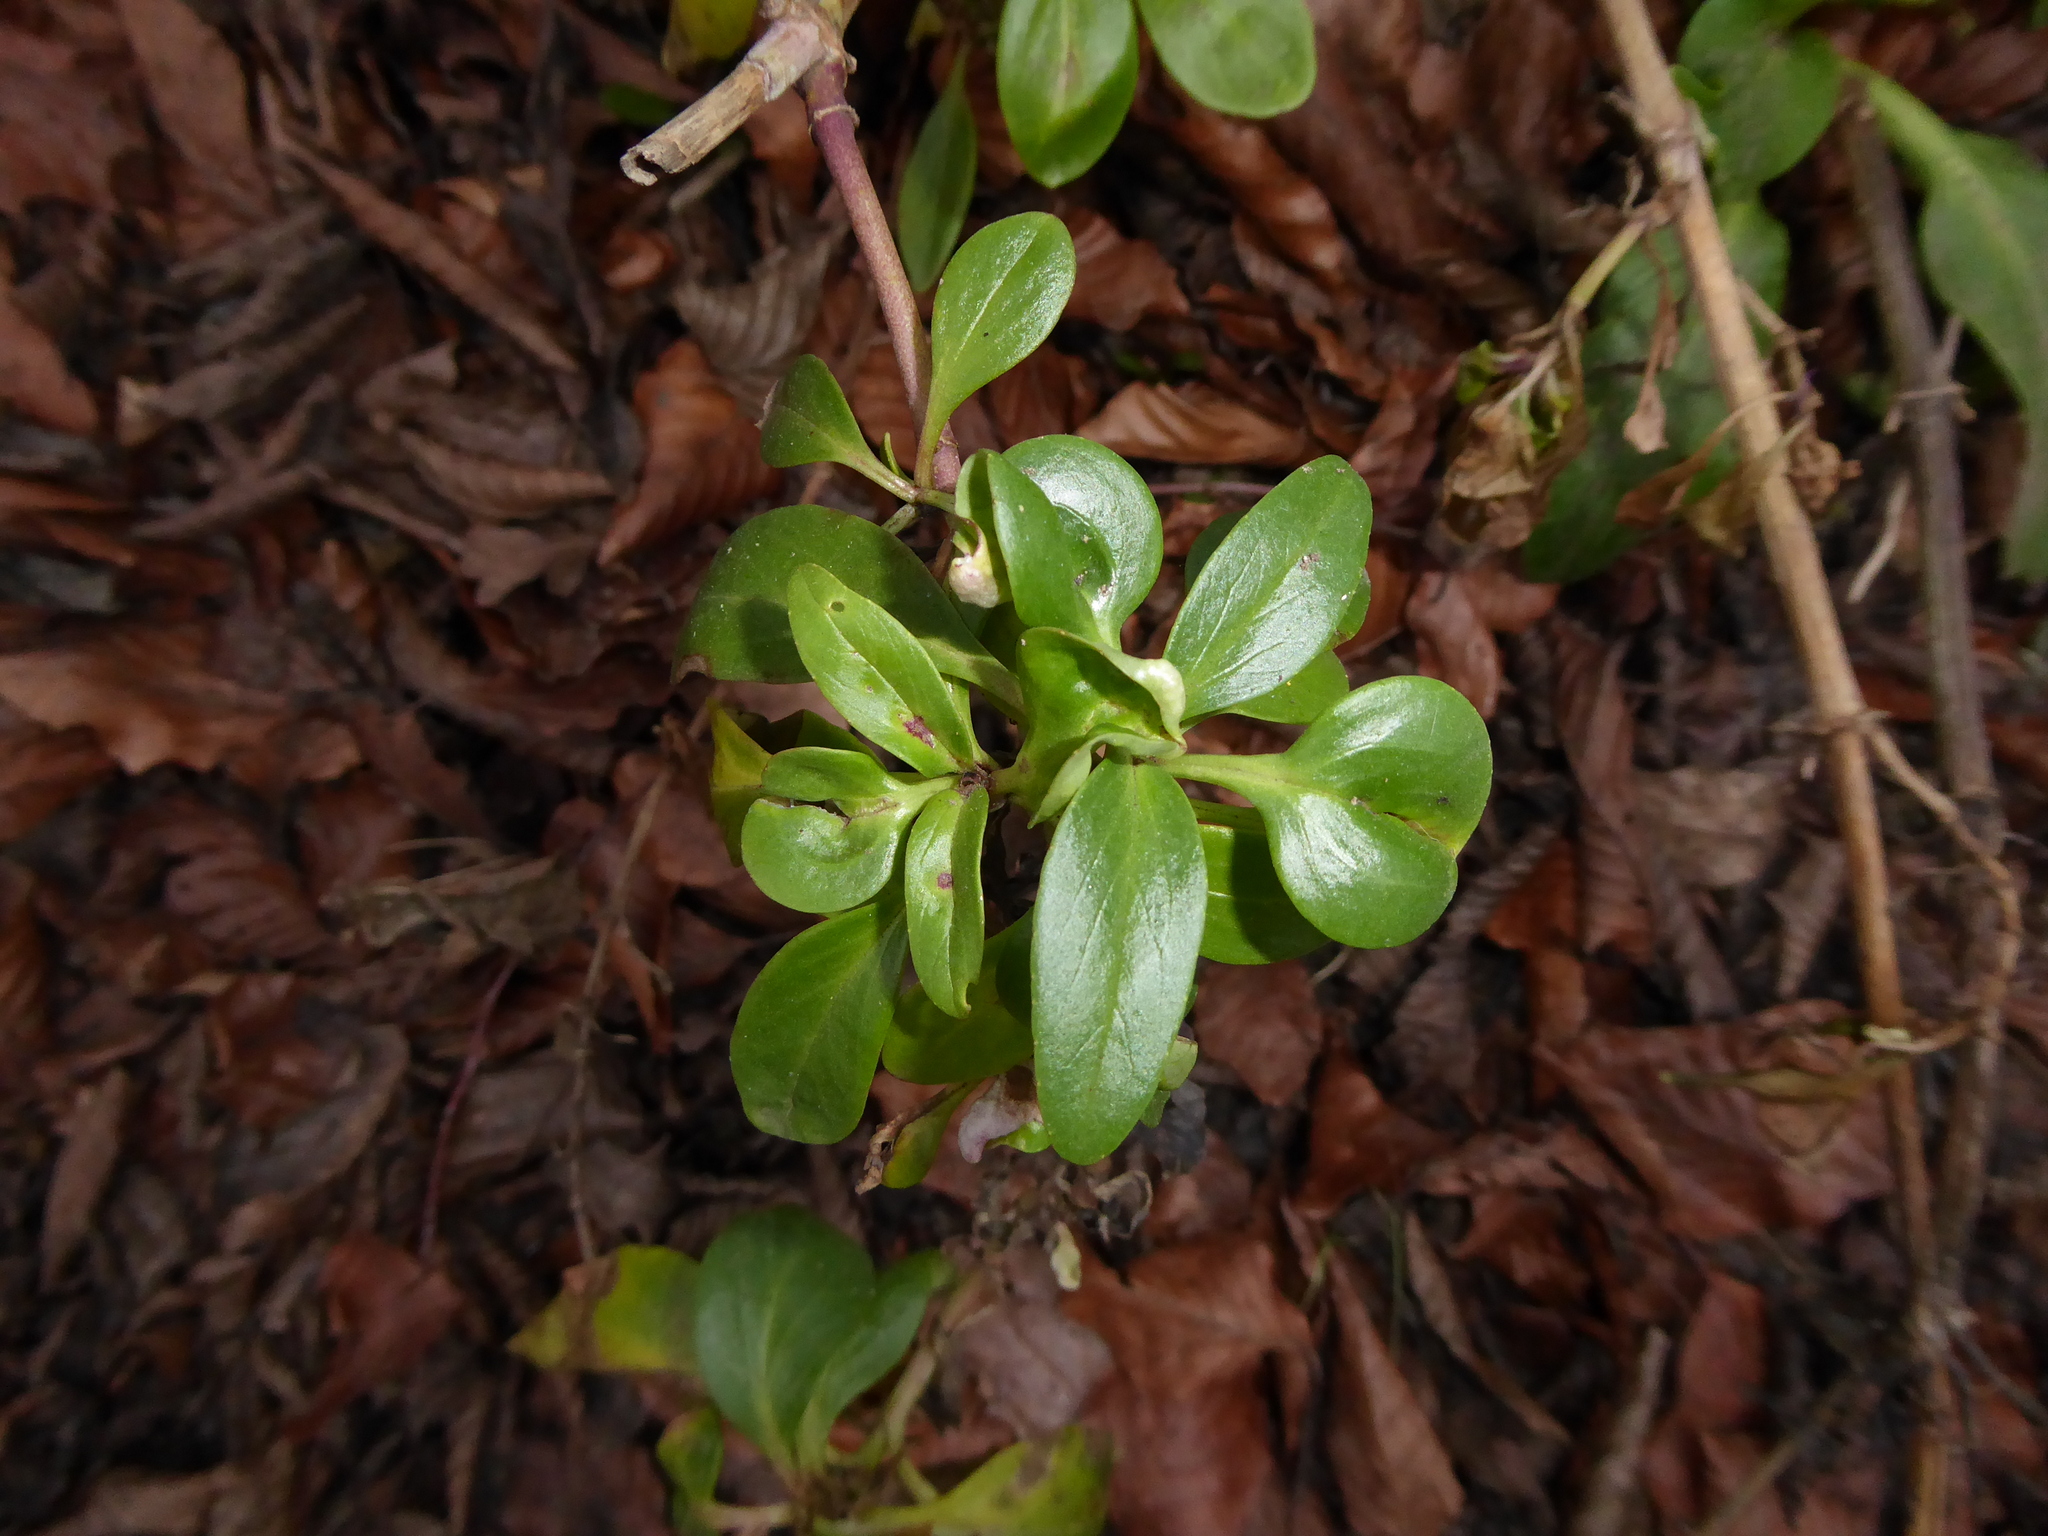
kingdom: Plantae
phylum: Tracheophyta
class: Magnoliopsida
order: Dipsacales
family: Caprifoliaceae
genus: Centranthus
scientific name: Centranthus ruber
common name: Red valerian
